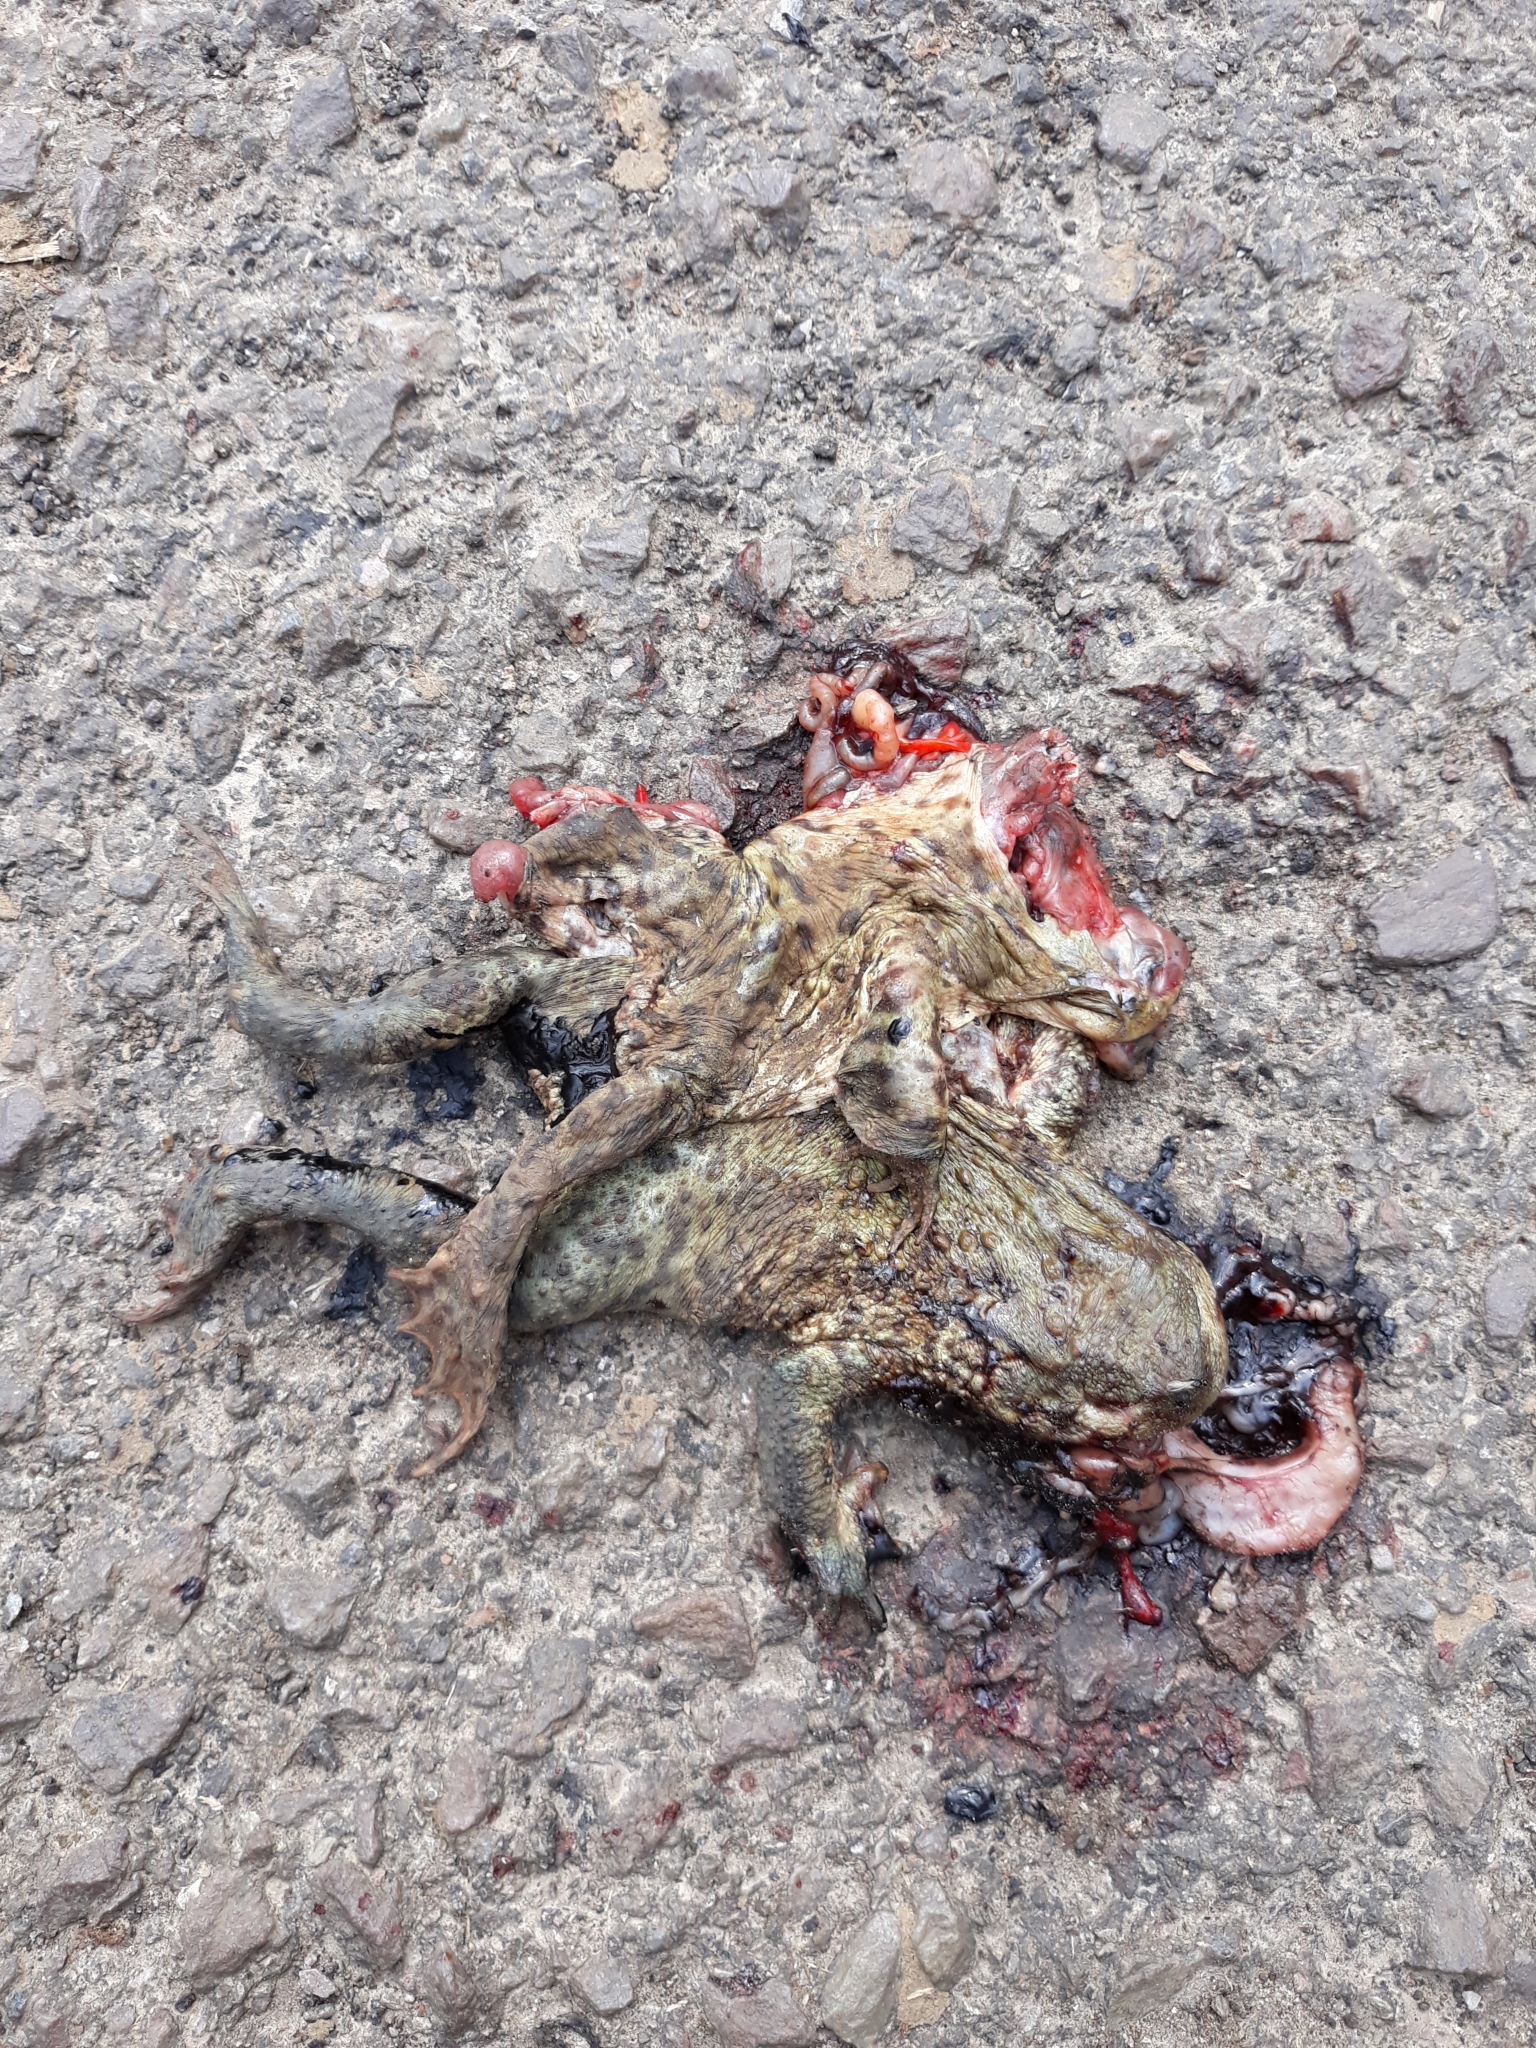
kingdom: Animalia
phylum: Chordata
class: Amphibia
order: Anura
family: Bufonidae
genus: Bufo
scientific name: Bufo bufo
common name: Common toad
